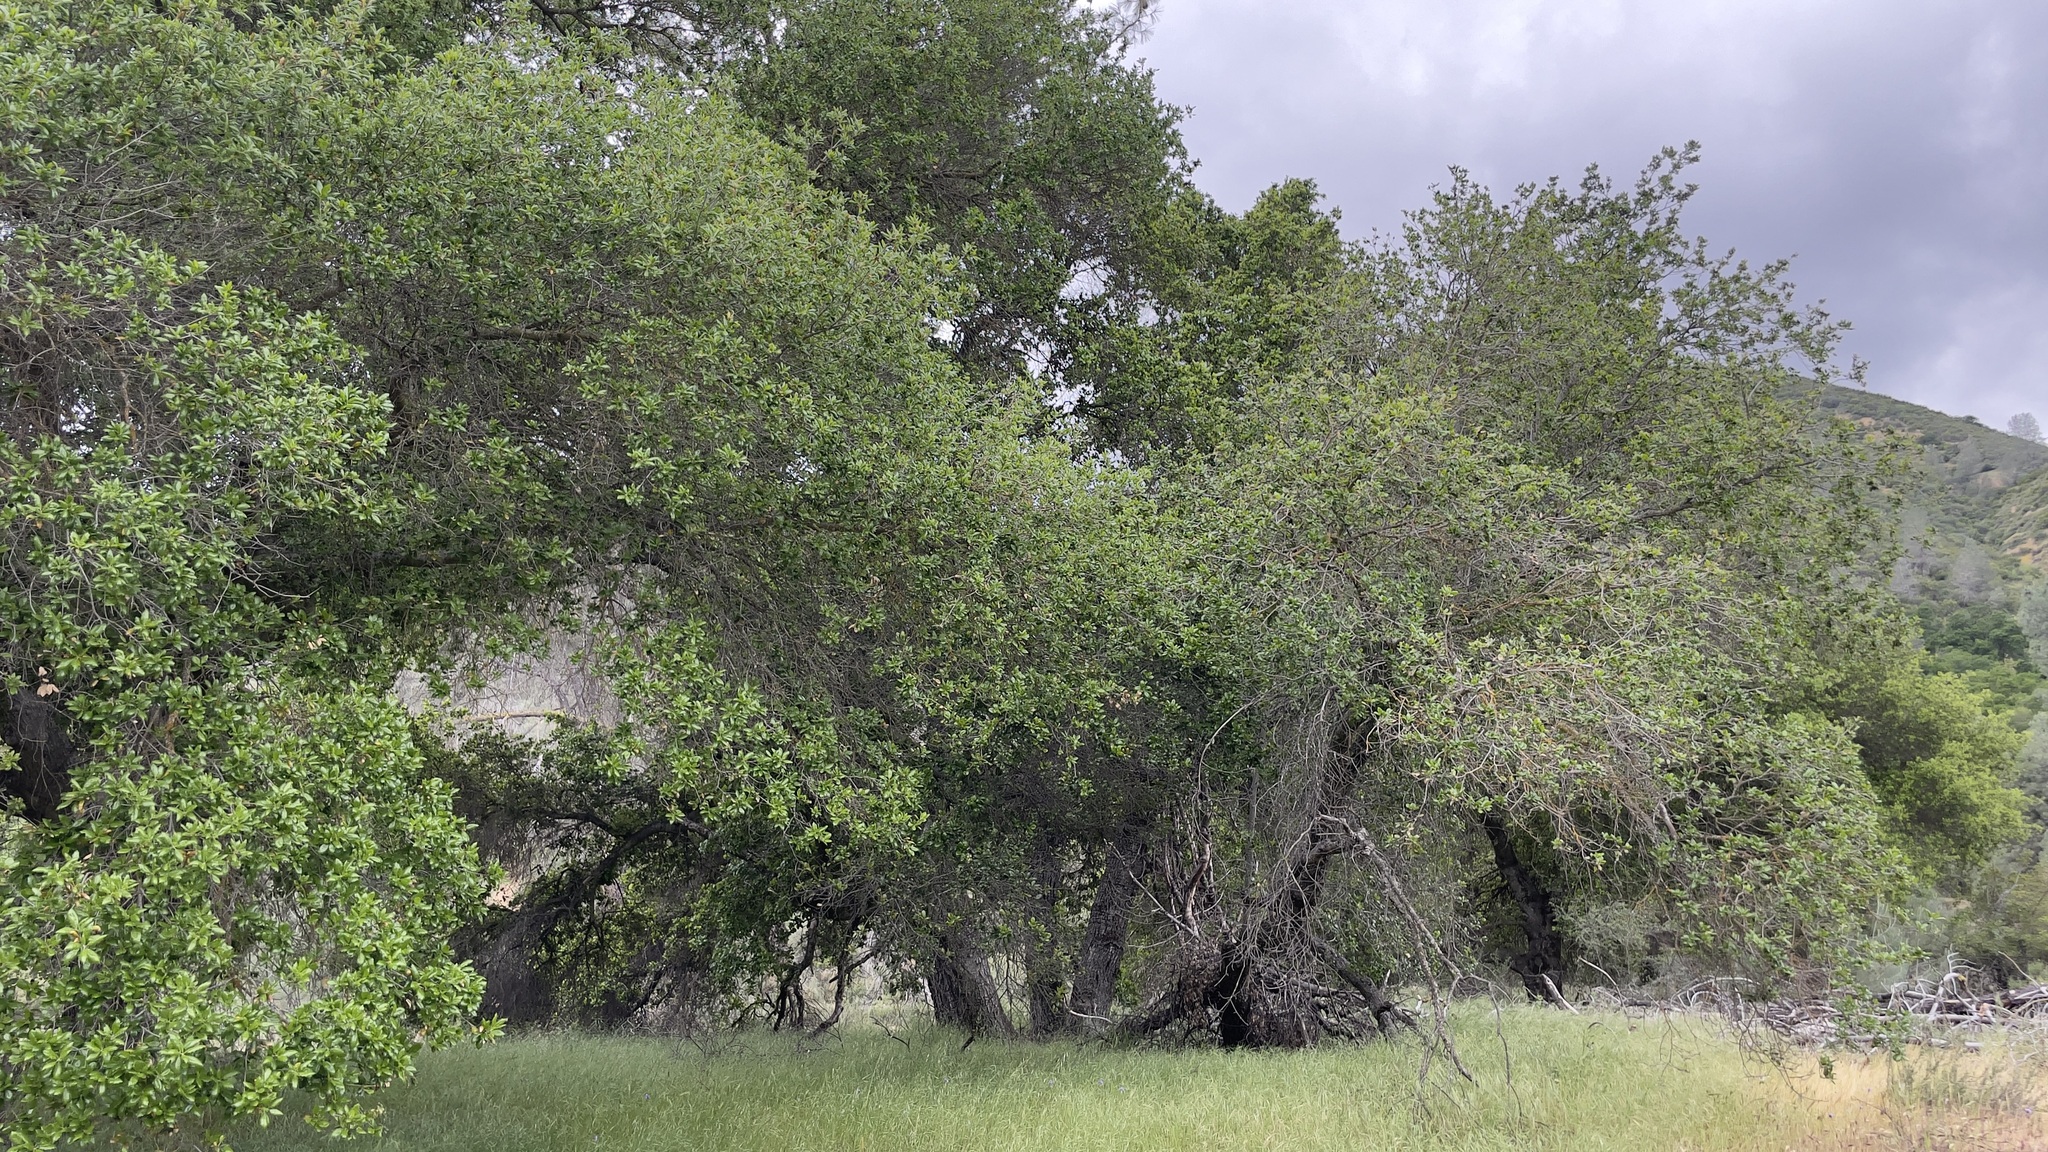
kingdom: Plantae
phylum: Tracheophyta
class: Magnoliopsida
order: Fagales
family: Fagaceae
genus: Quercus
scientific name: Quercus agrifolia
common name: California live oak
